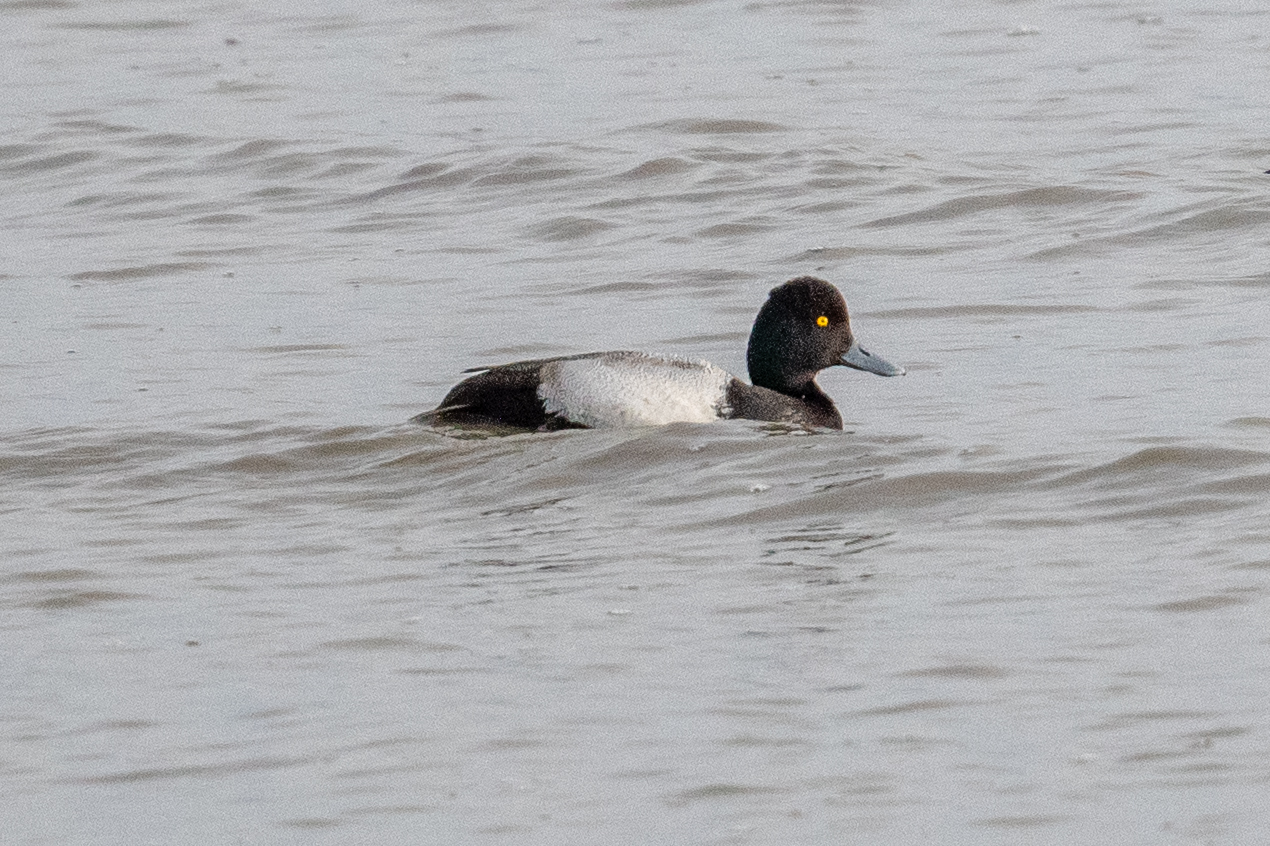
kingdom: Animalia
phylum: Chordata
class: Aves
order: Anseriformes
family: Anatidae
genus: Aythya
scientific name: Aythya affinis
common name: Lesser scaup
